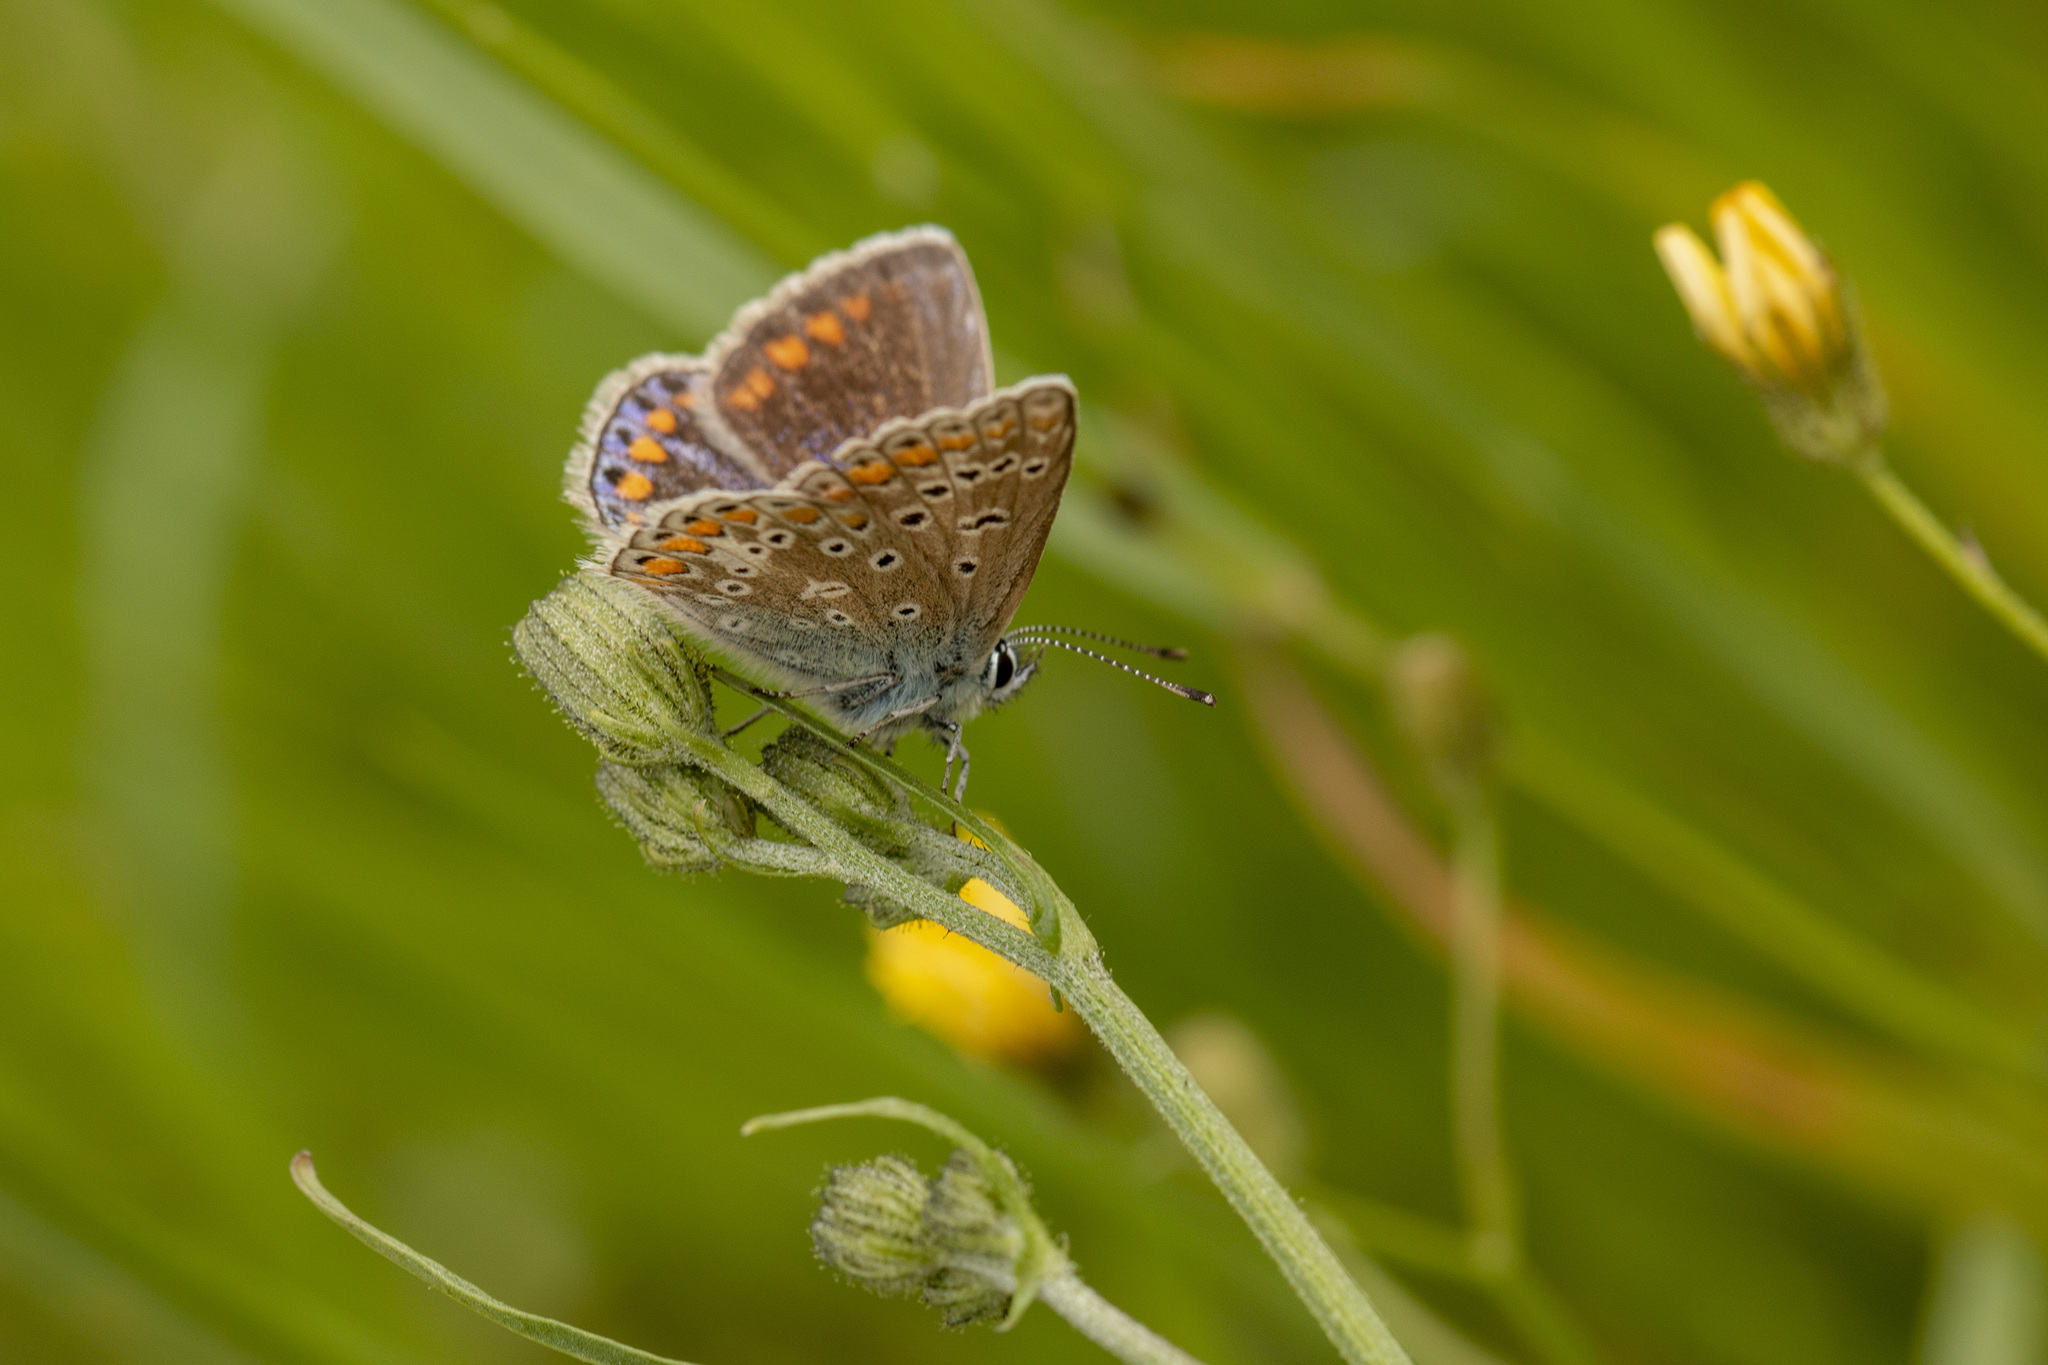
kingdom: Animalia
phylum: Arthropoda
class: Insecta
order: Lepidoptera
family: Lycaenidae
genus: Polyommatus
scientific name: Polyommatus icarus
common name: Common blue
